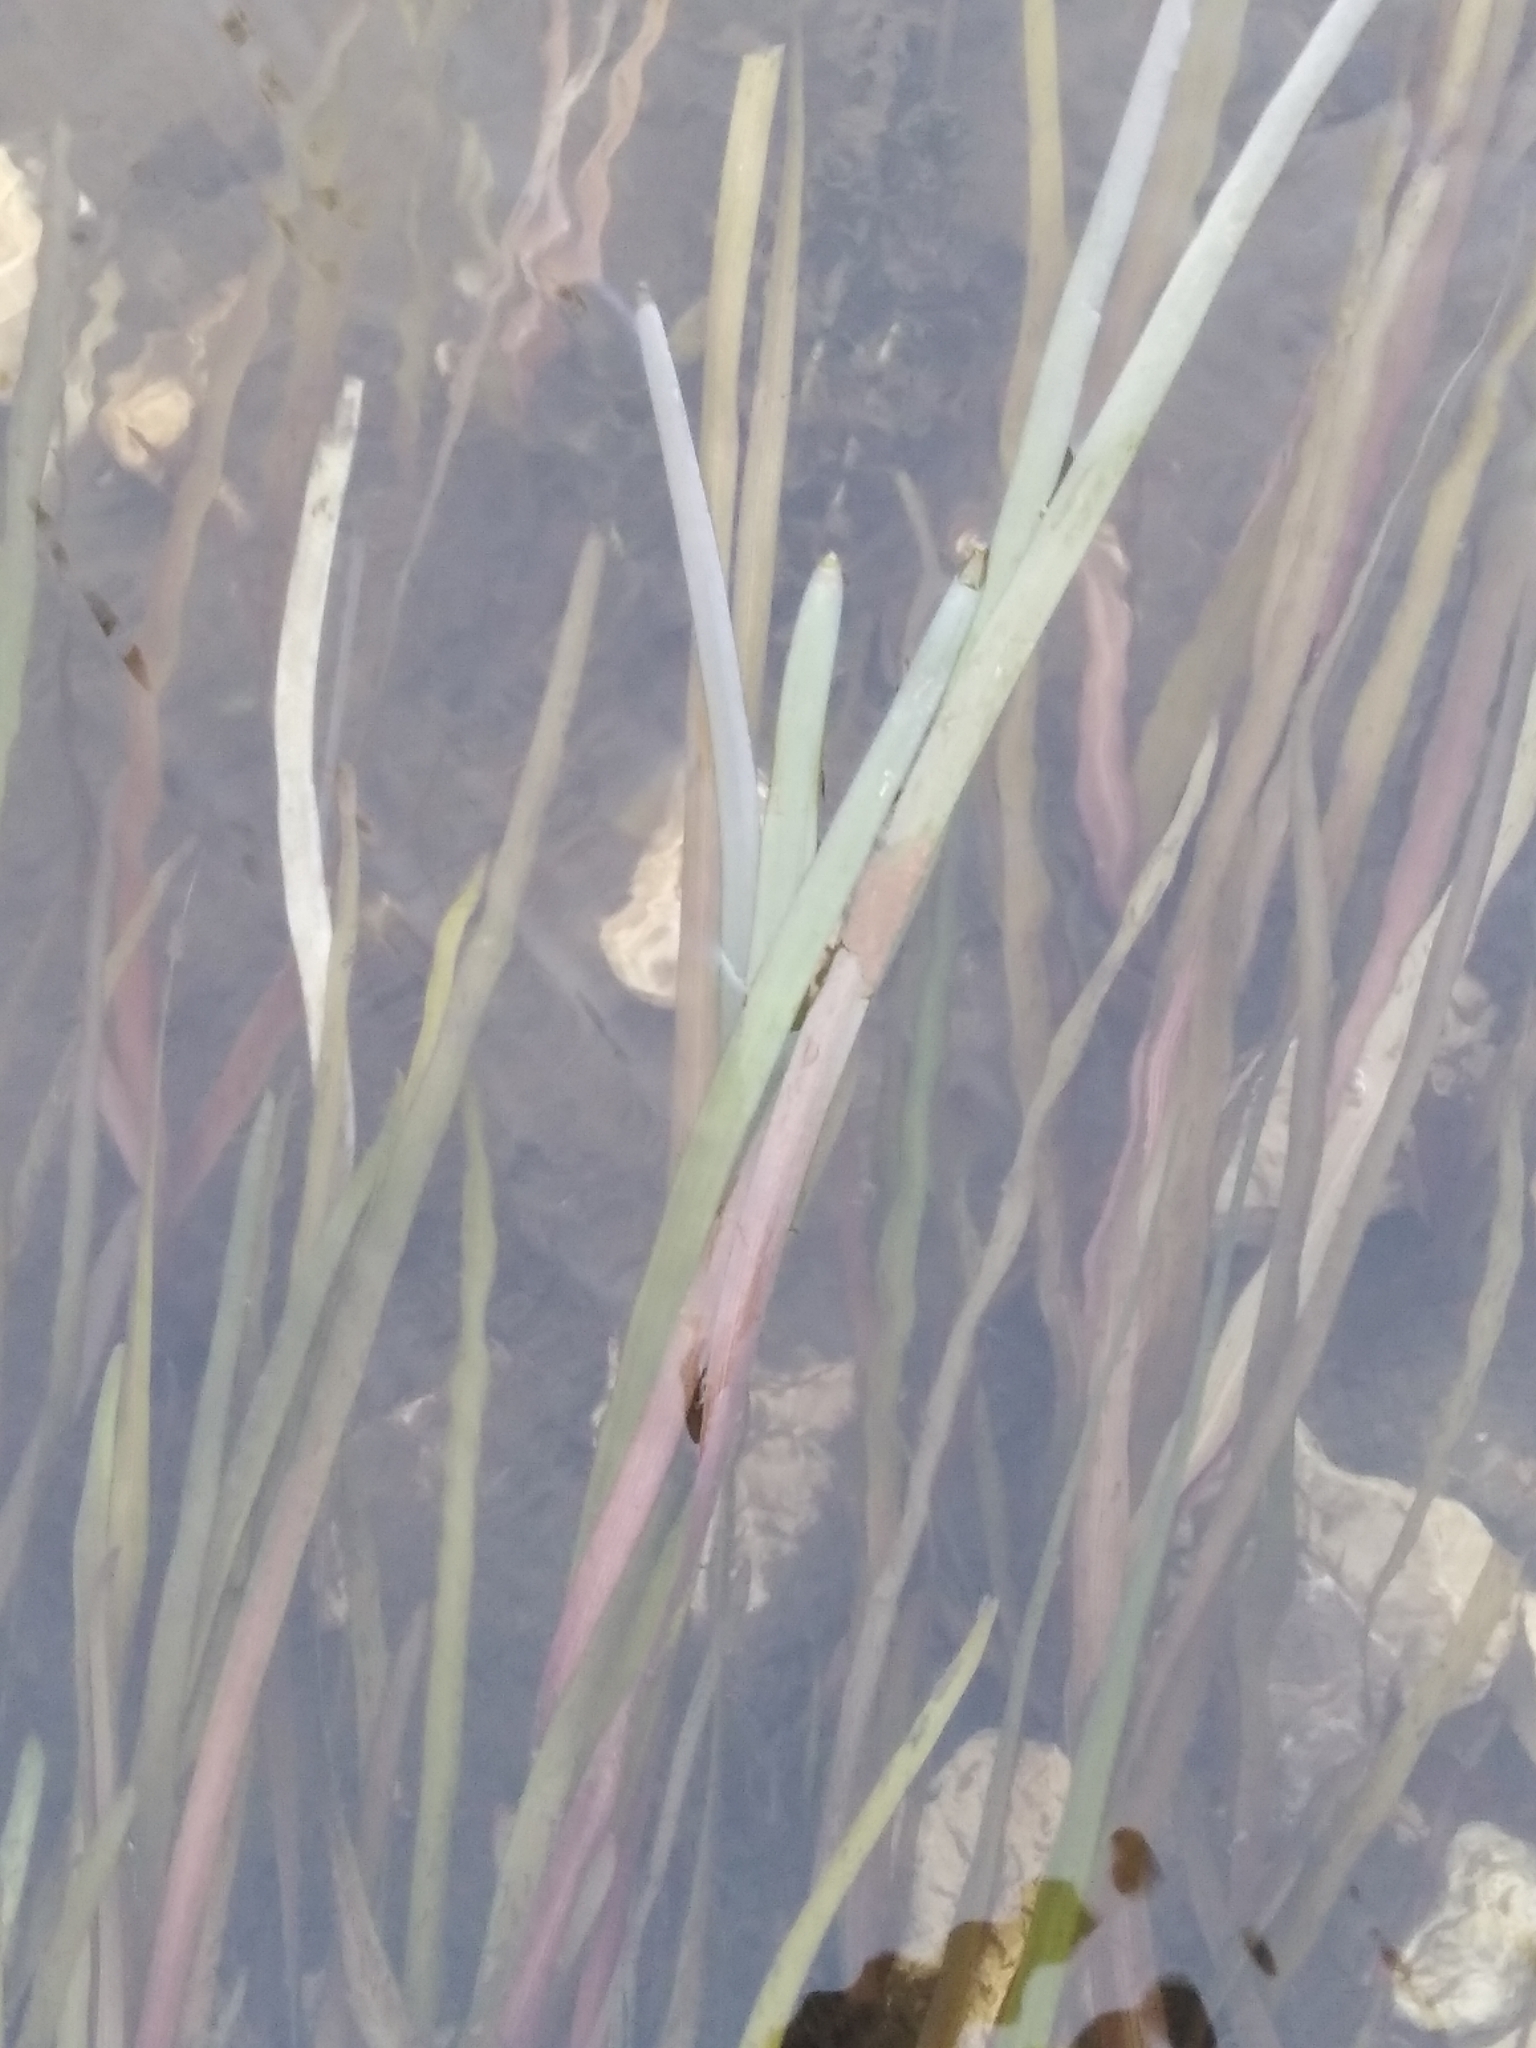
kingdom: Plantae
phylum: Tracheophyta
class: Liliopsida
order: Poales
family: Typhaceae
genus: Sparganium
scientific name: Sparganium emersum
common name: Unbranched bur-reed
